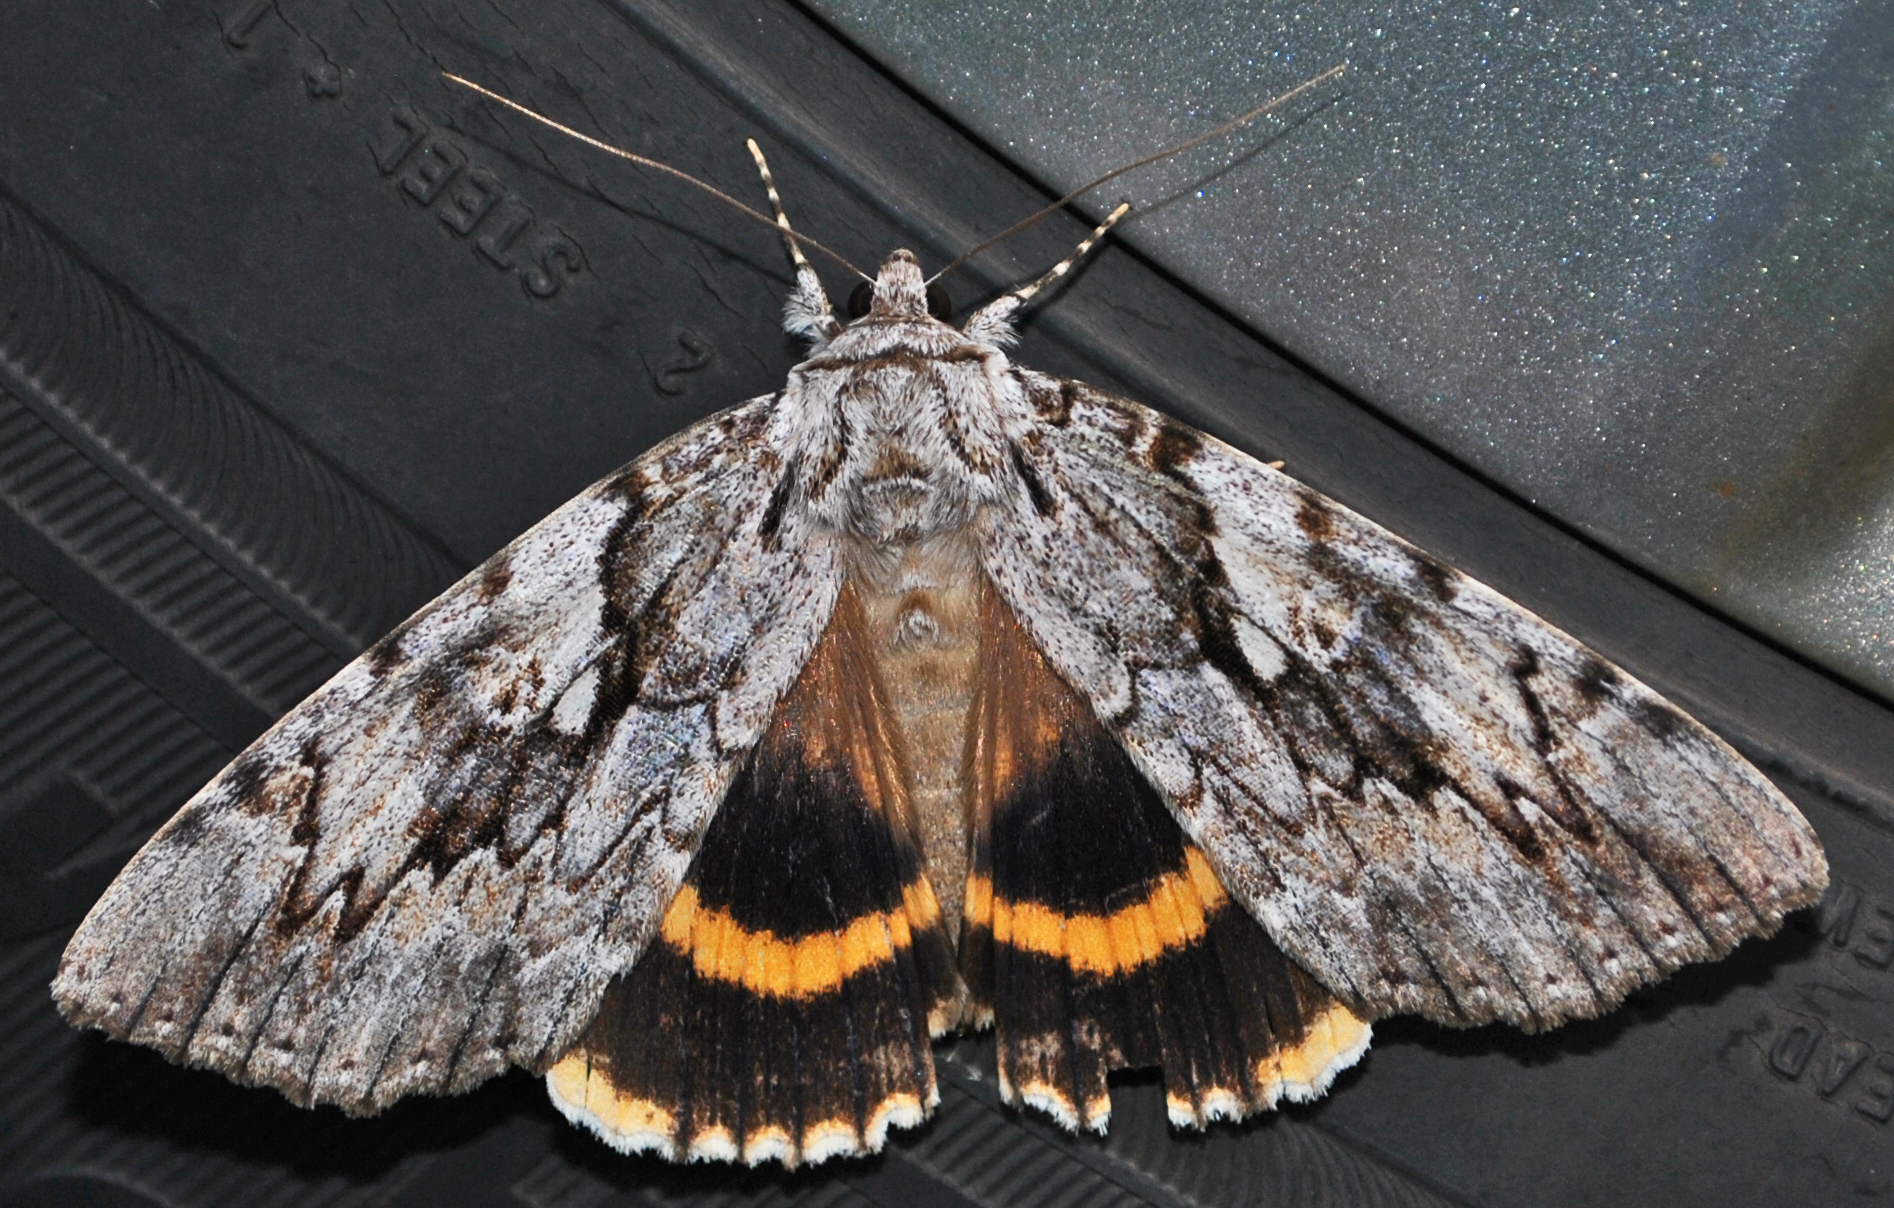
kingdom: Animalia
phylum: Arthropoda
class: Insecta
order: Lepidoptera
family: Erebidae
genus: Catocala
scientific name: Catocala cerogama
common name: Yellow banded underwing
